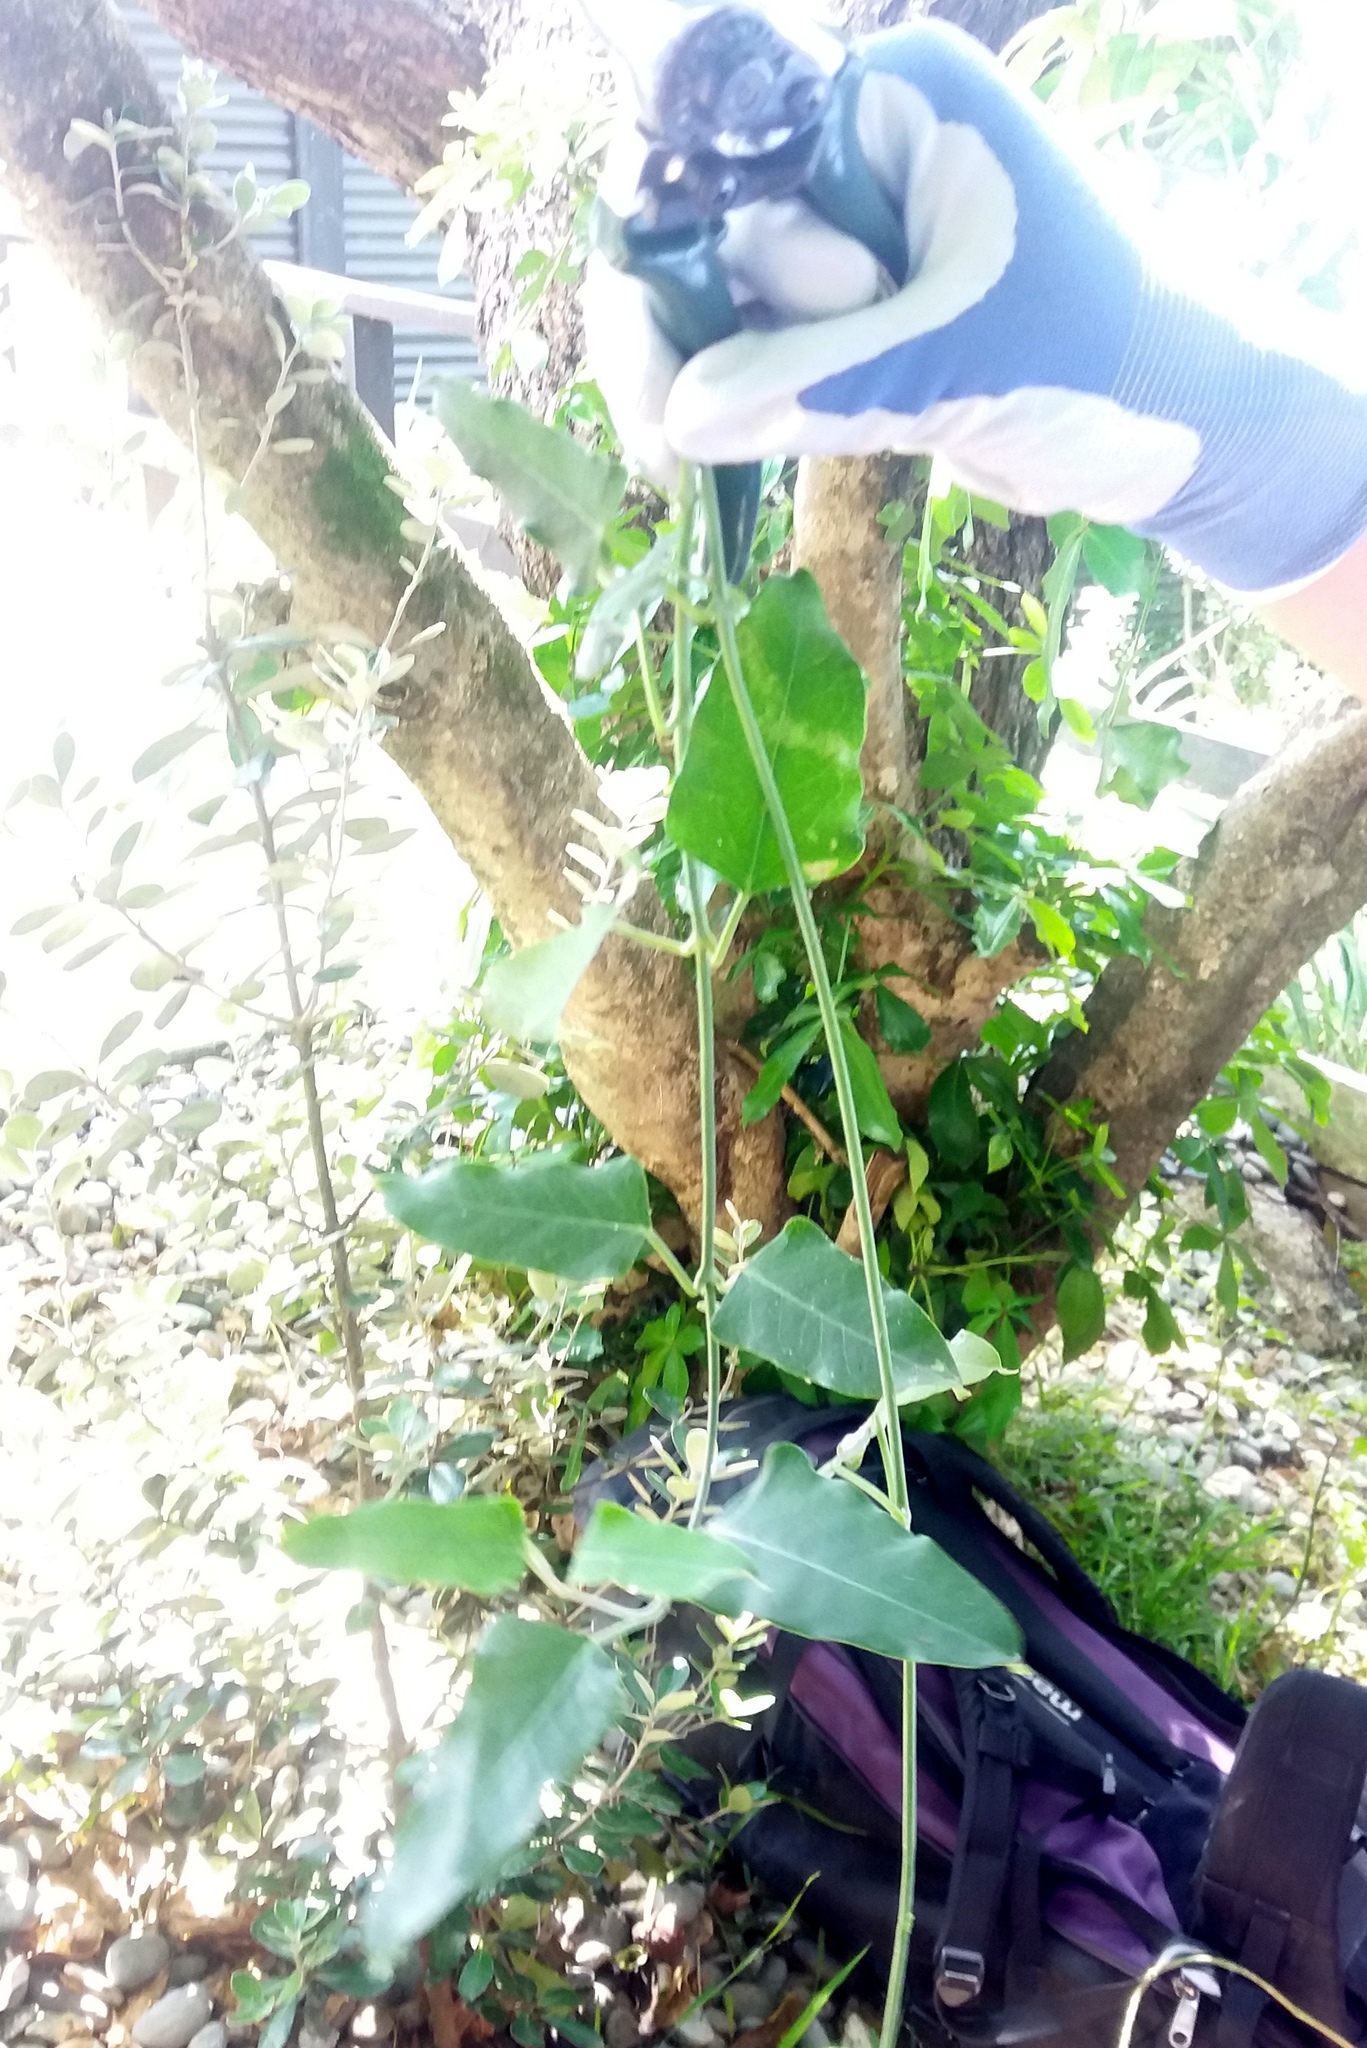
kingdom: Plantae
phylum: Tracheophyta
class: Magnoliopsida
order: Gentianales
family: Apocynaceae
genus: Araujia
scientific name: Araujia sericifera
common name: White bladderflower
